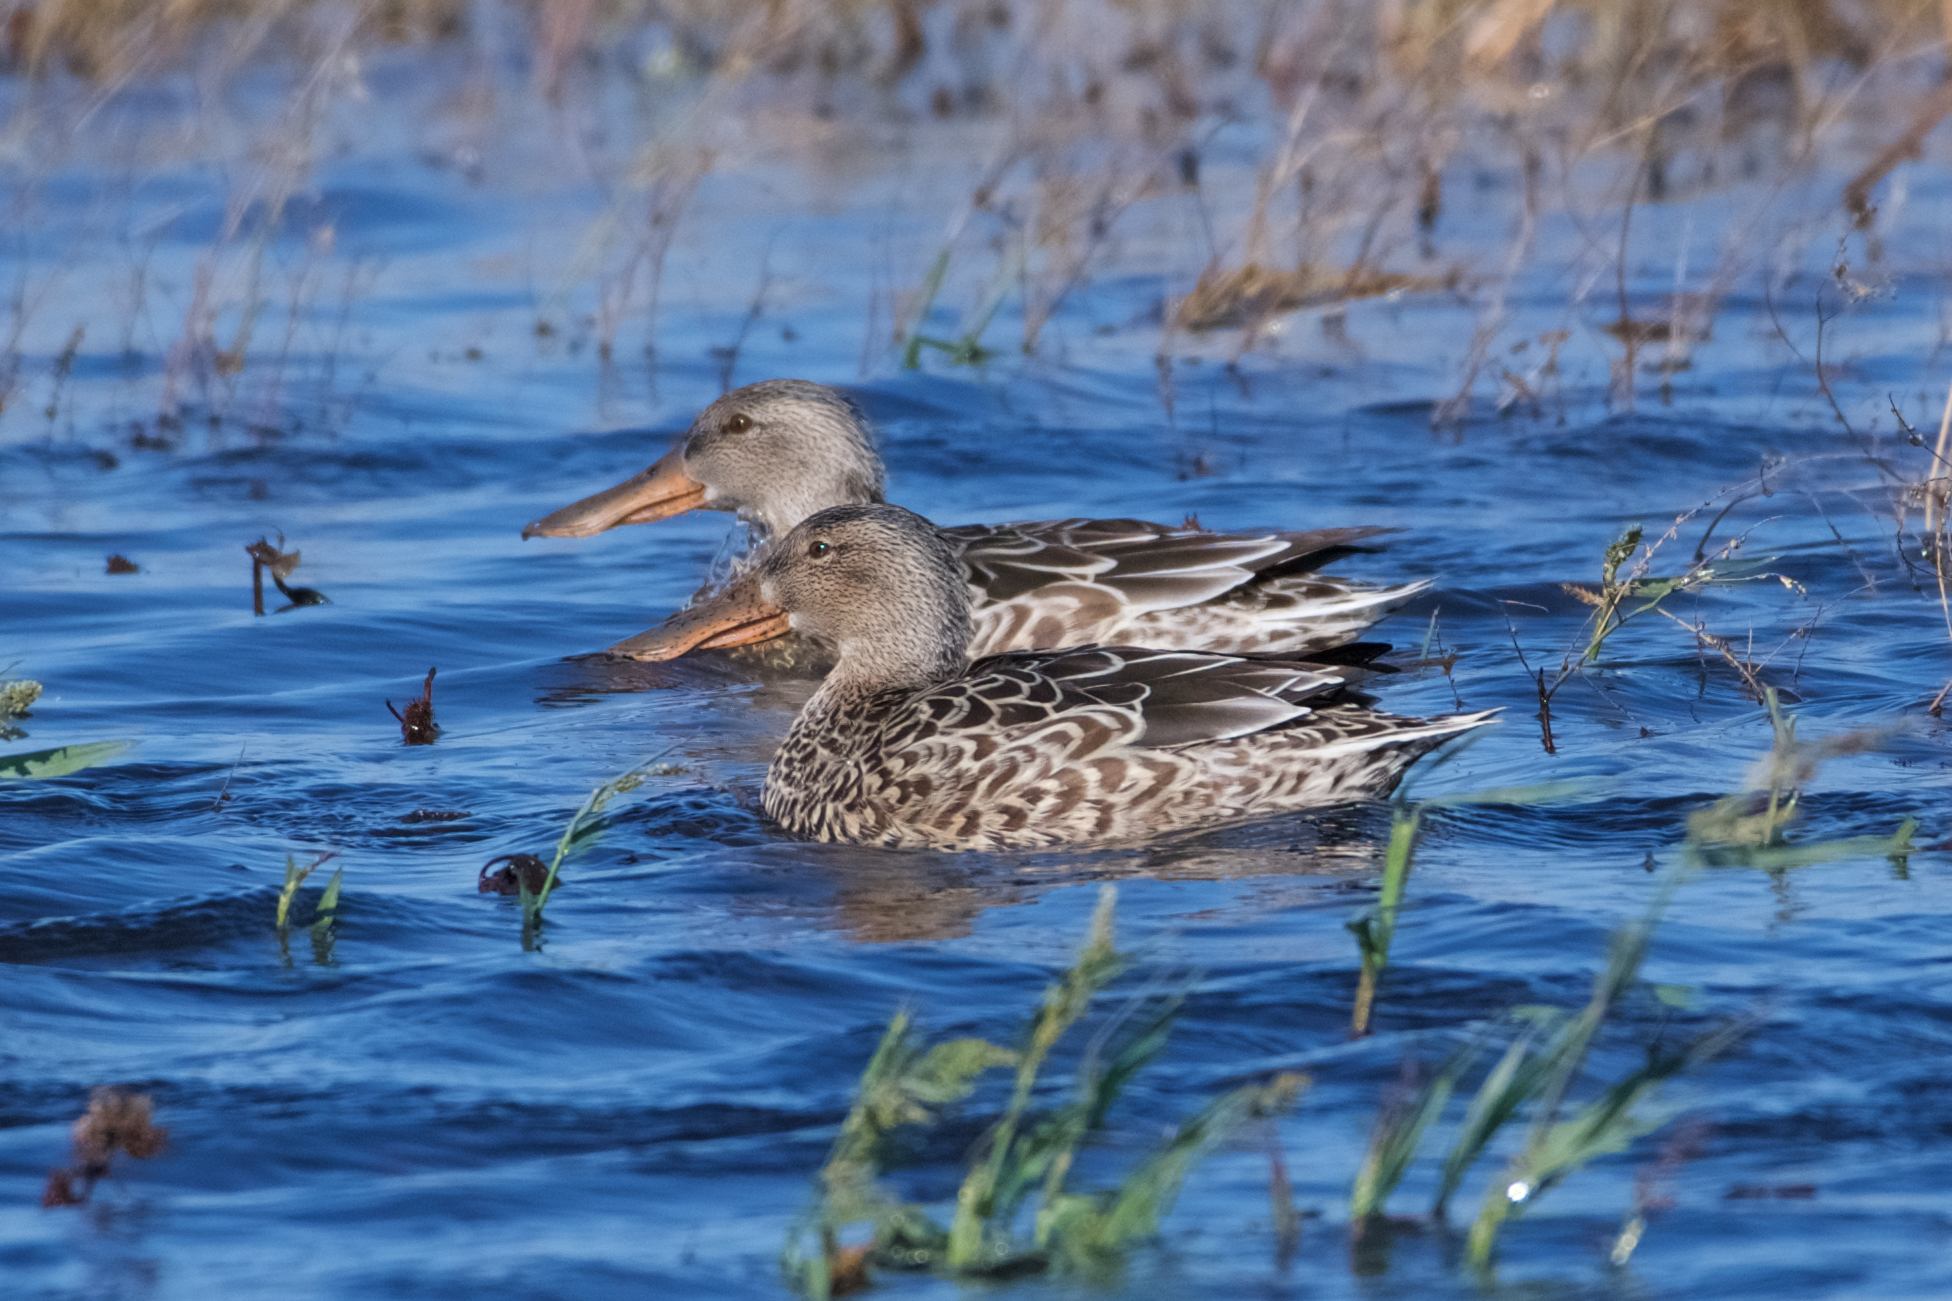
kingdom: Animalia
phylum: Chordata
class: Aves
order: Anseriformes
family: Anatidae
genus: Spatula
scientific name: Spatula clypeata
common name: Northern shoveler
